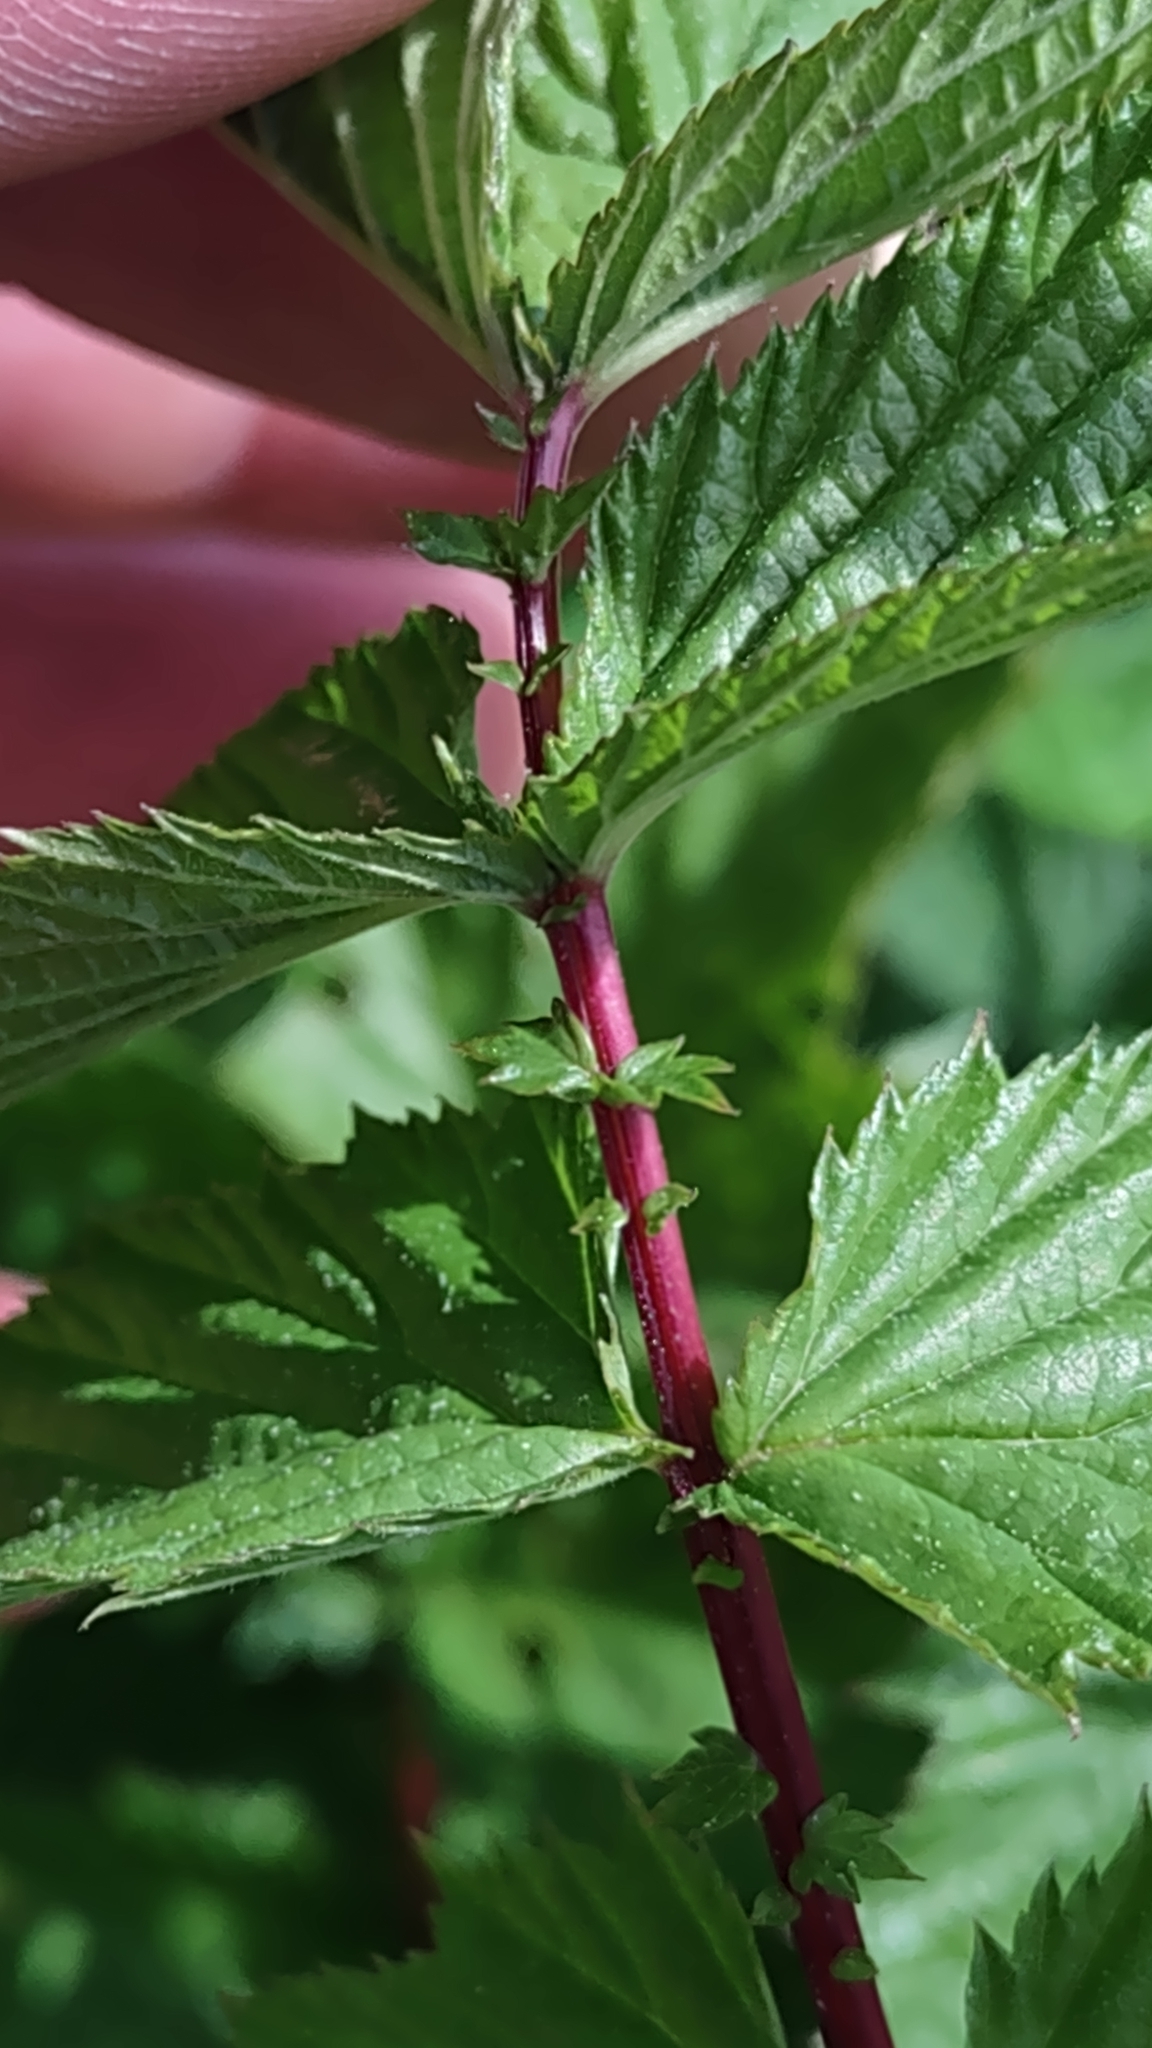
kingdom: Plantae
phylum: Tracheophyta
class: Magnoliopsida
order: Rosales
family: Rosaceae
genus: Filipendula
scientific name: Filipendula ulmaria
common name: Meadowsweet
